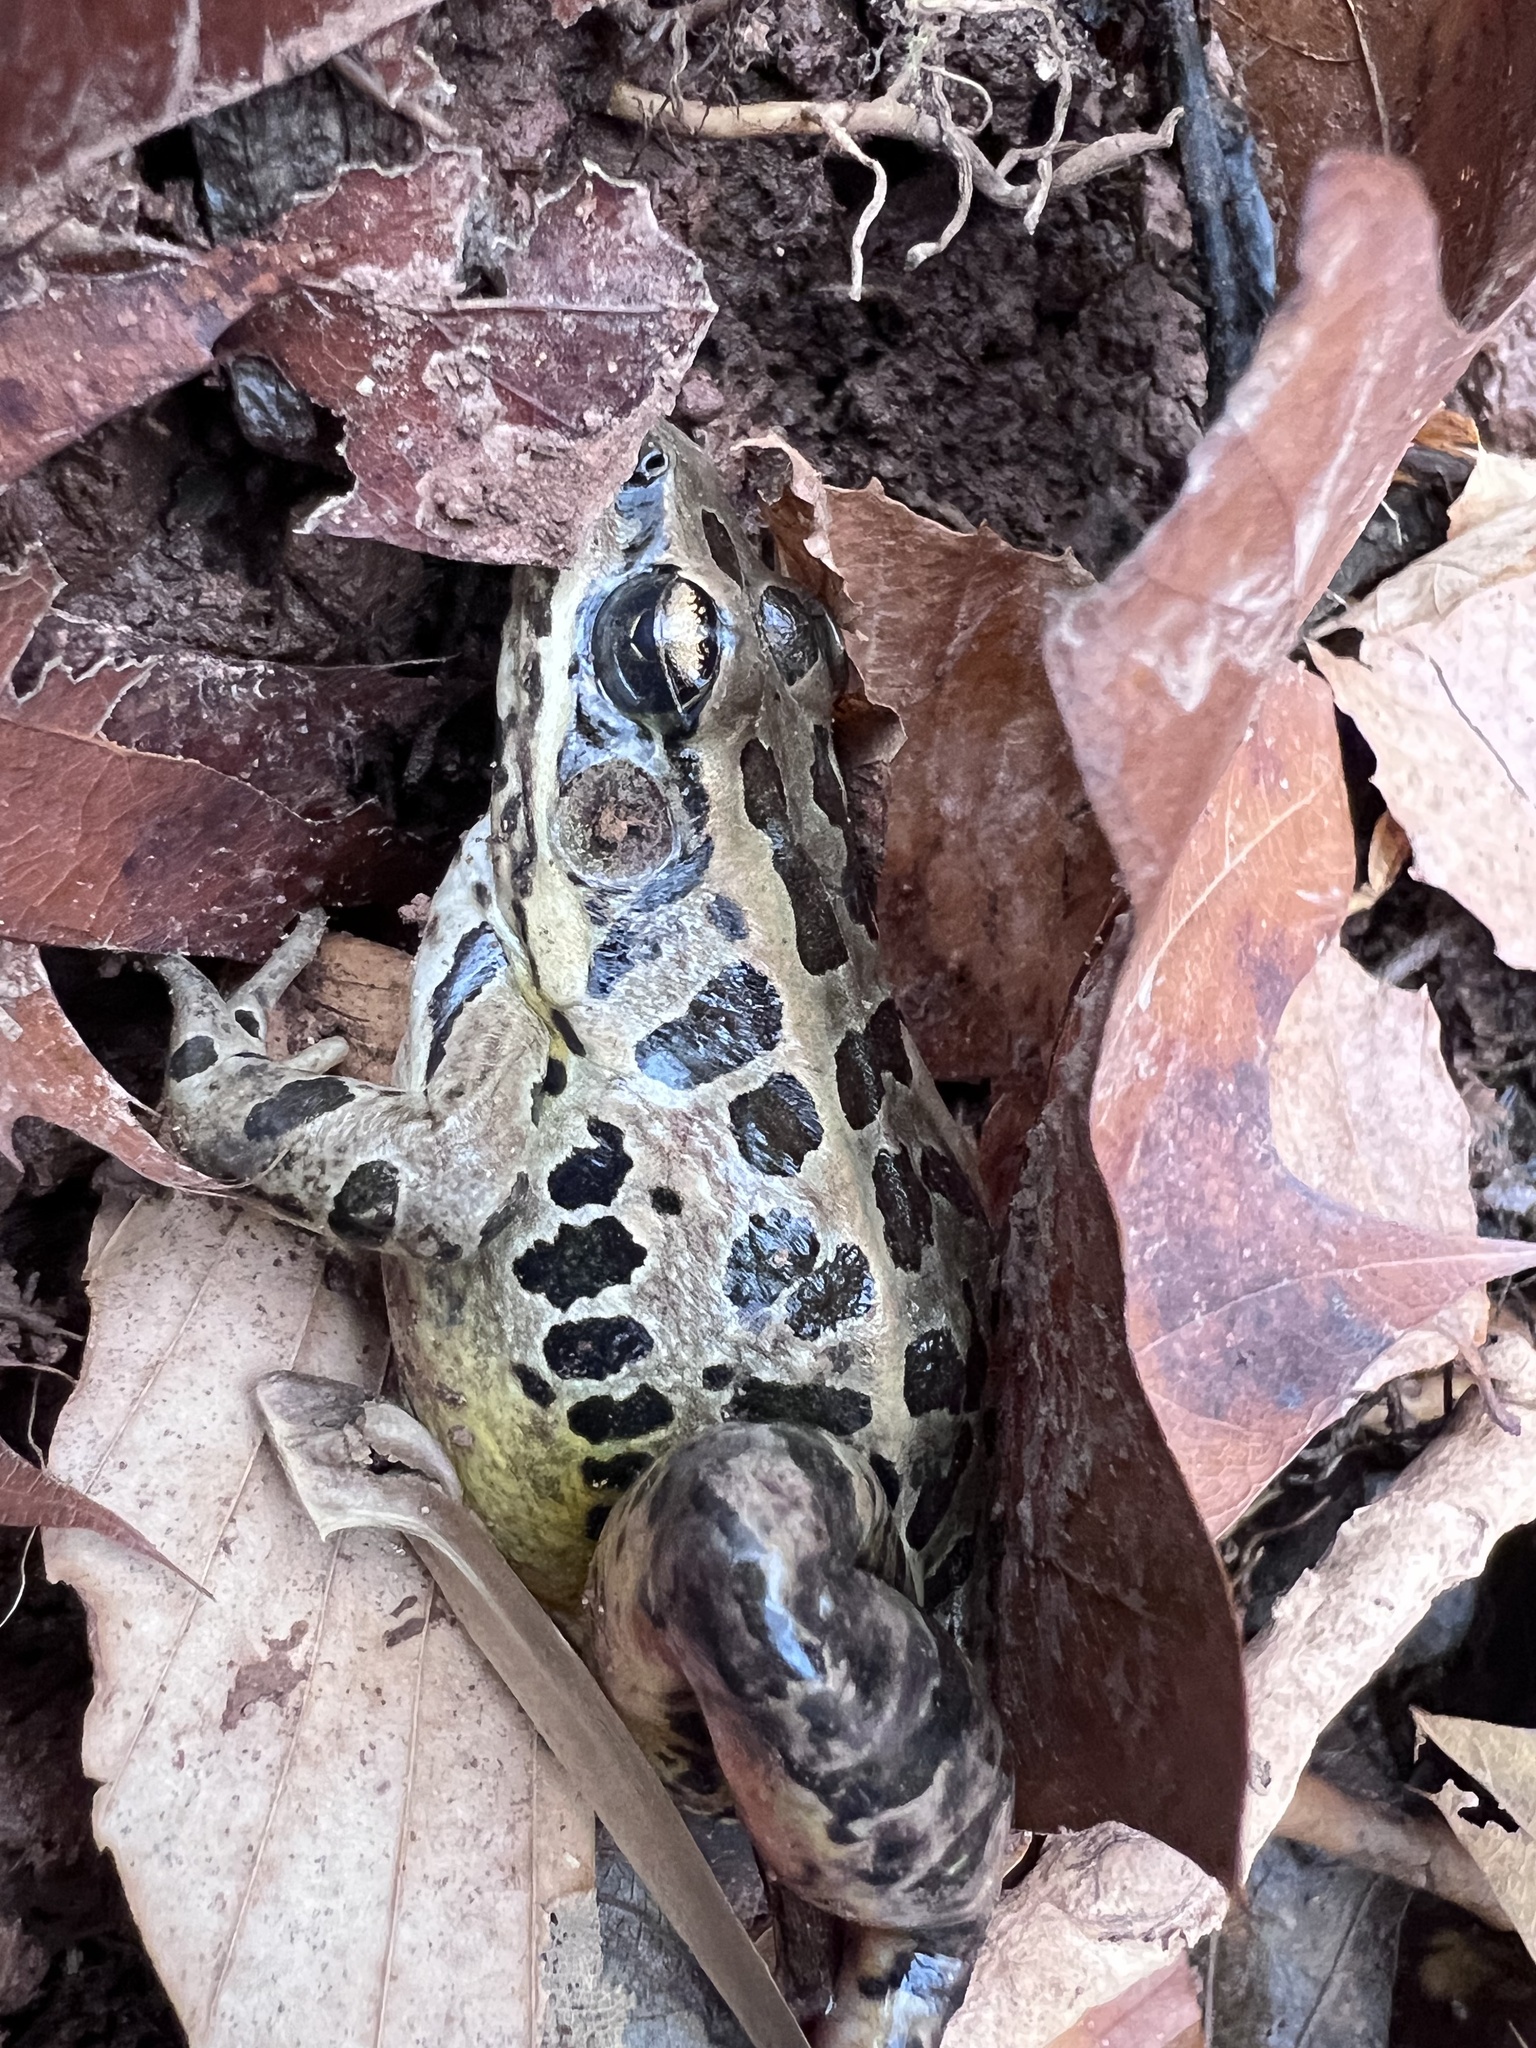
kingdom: Animalia
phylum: Chordata
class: Amphibia
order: Anura
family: Ranidae
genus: Lithobates
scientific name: Lithobates palustris
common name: Pickerel frog
